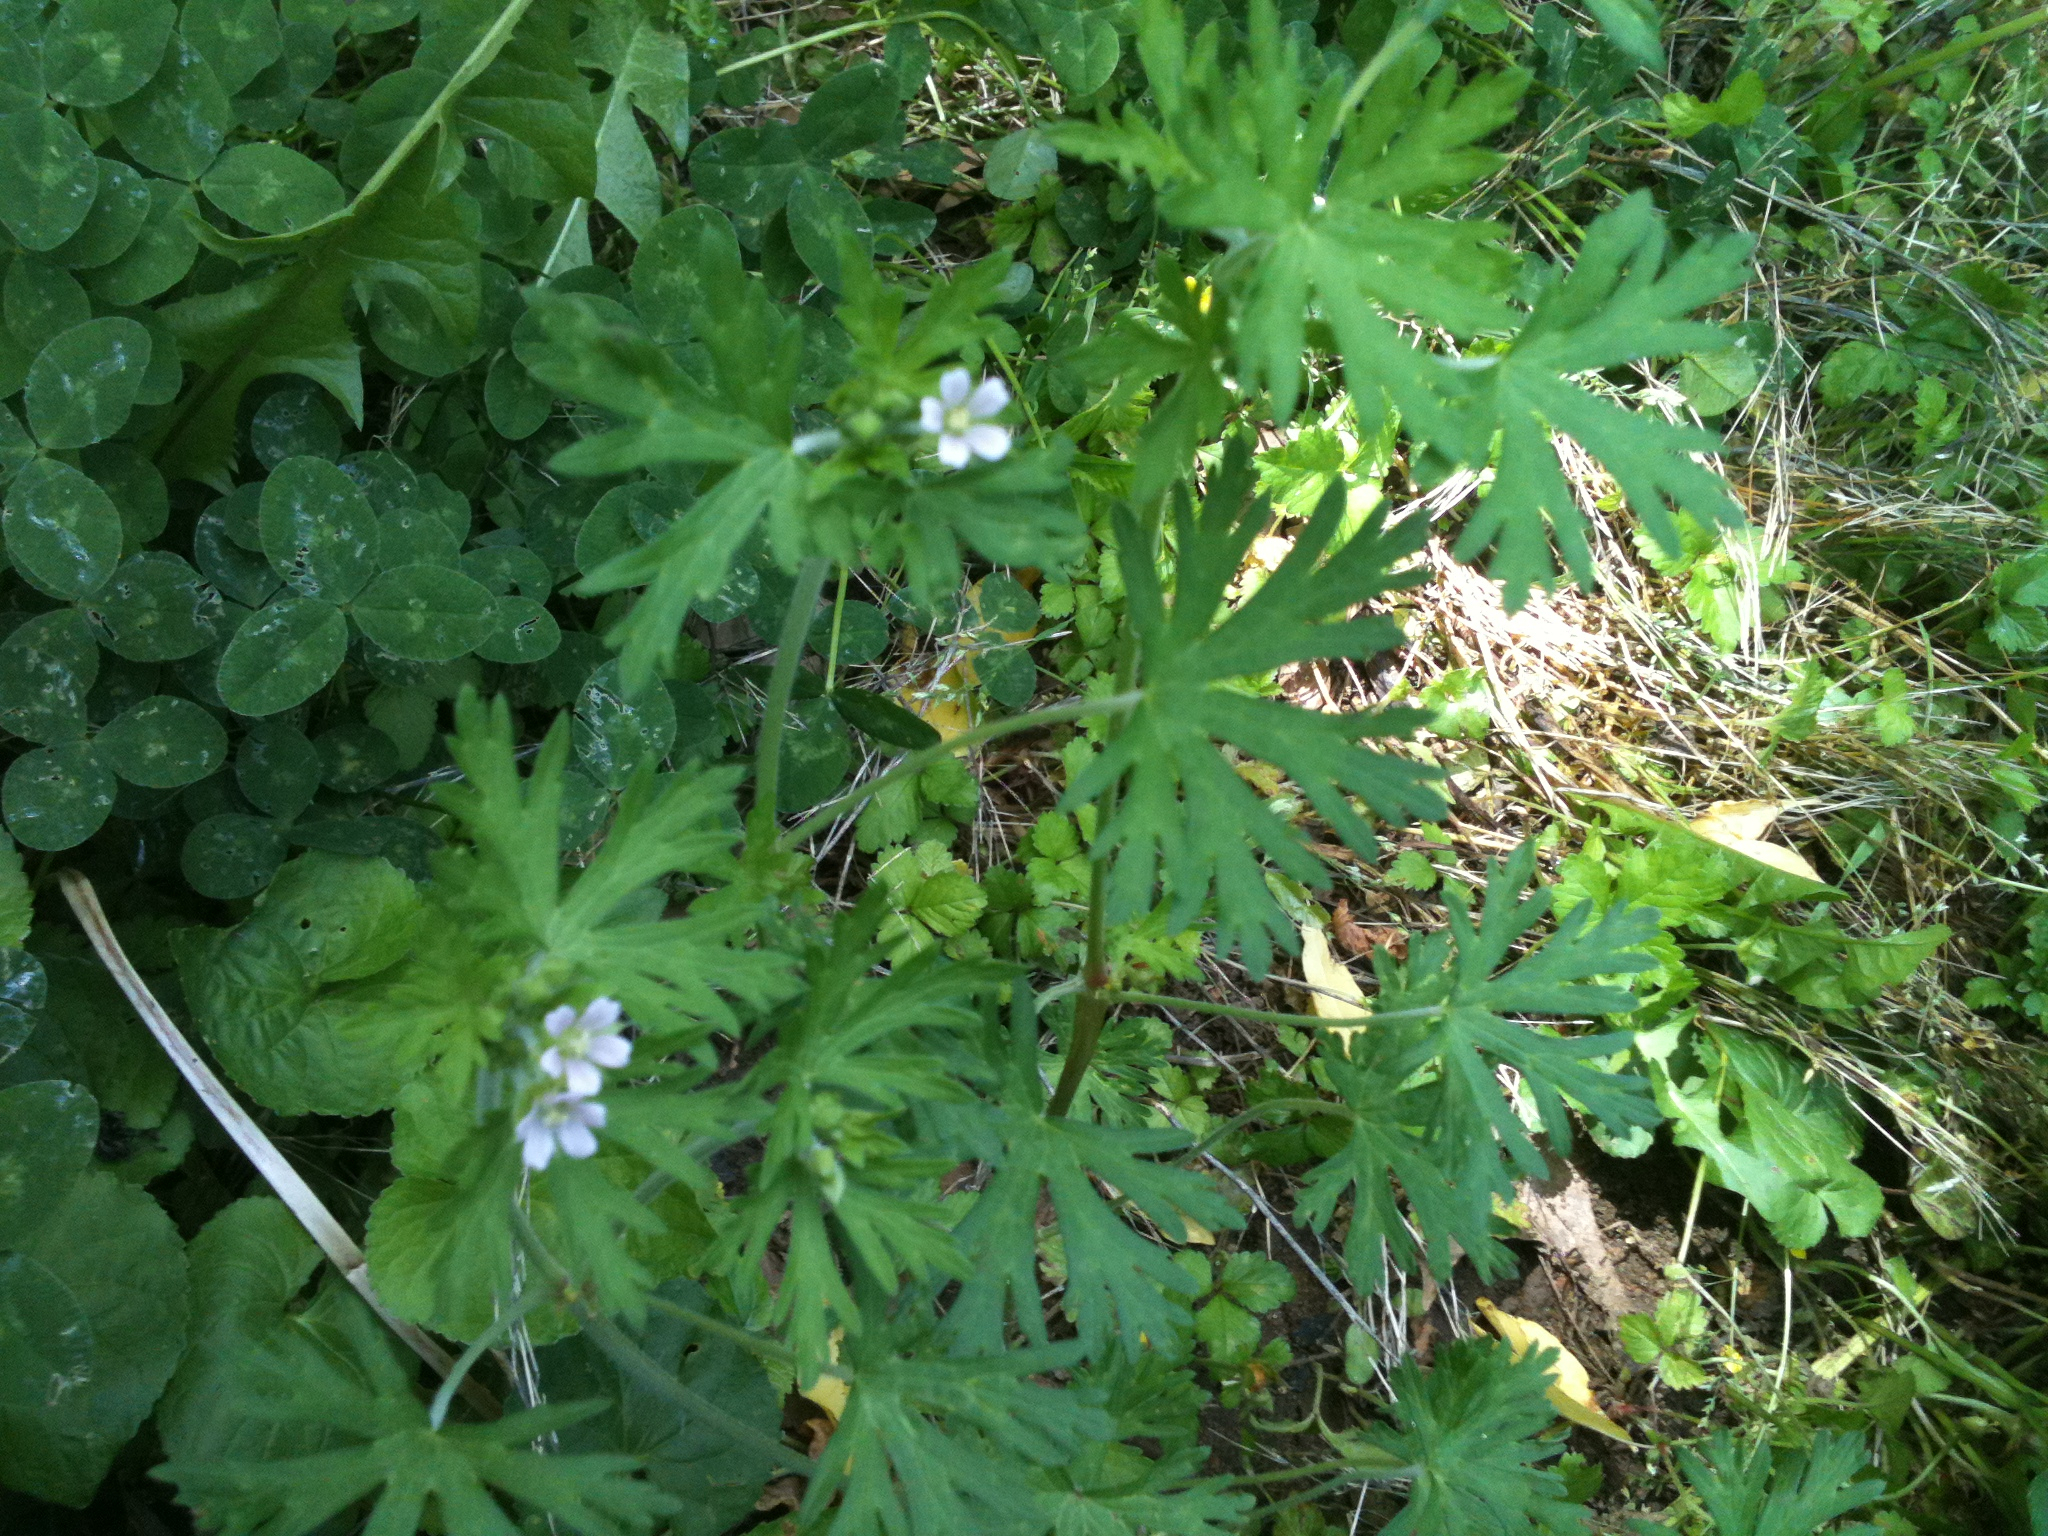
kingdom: Plantae
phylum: Tracheophyta
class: Magnoliopsida
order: Geraniales
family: Geraniaceae
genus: Geranium
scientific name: Geranium carolinianum
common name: Carolina crane's-bill
